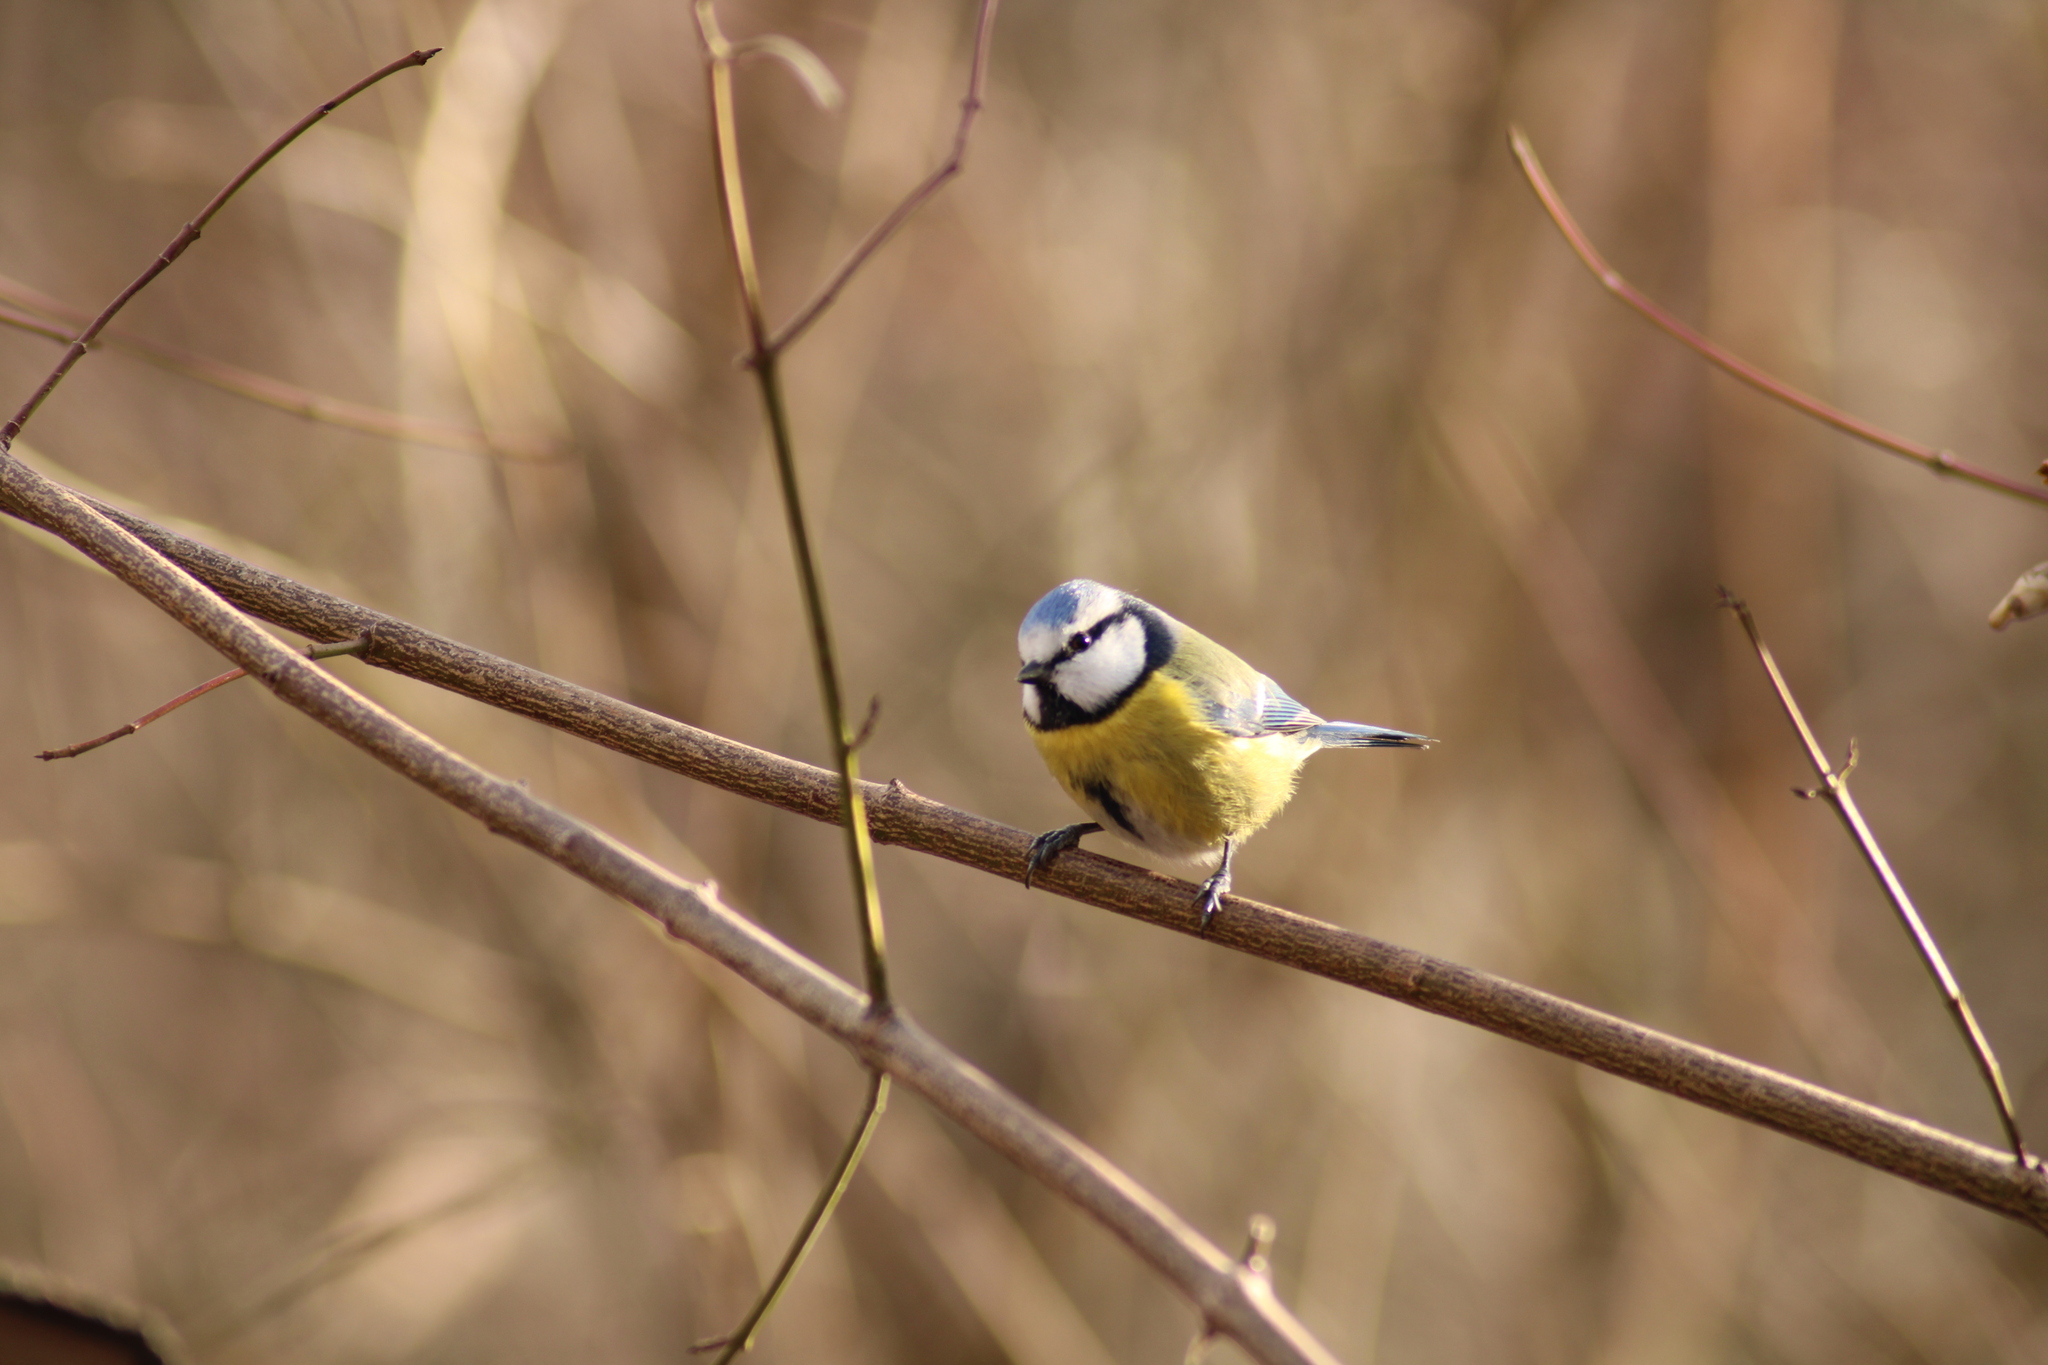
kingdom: Animalia
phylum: Chordata
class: Aves
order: Passeriformes
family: Paridae
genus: Cyanistes
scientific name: Cyanistes caeruleus
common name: Eurasian blue tit
